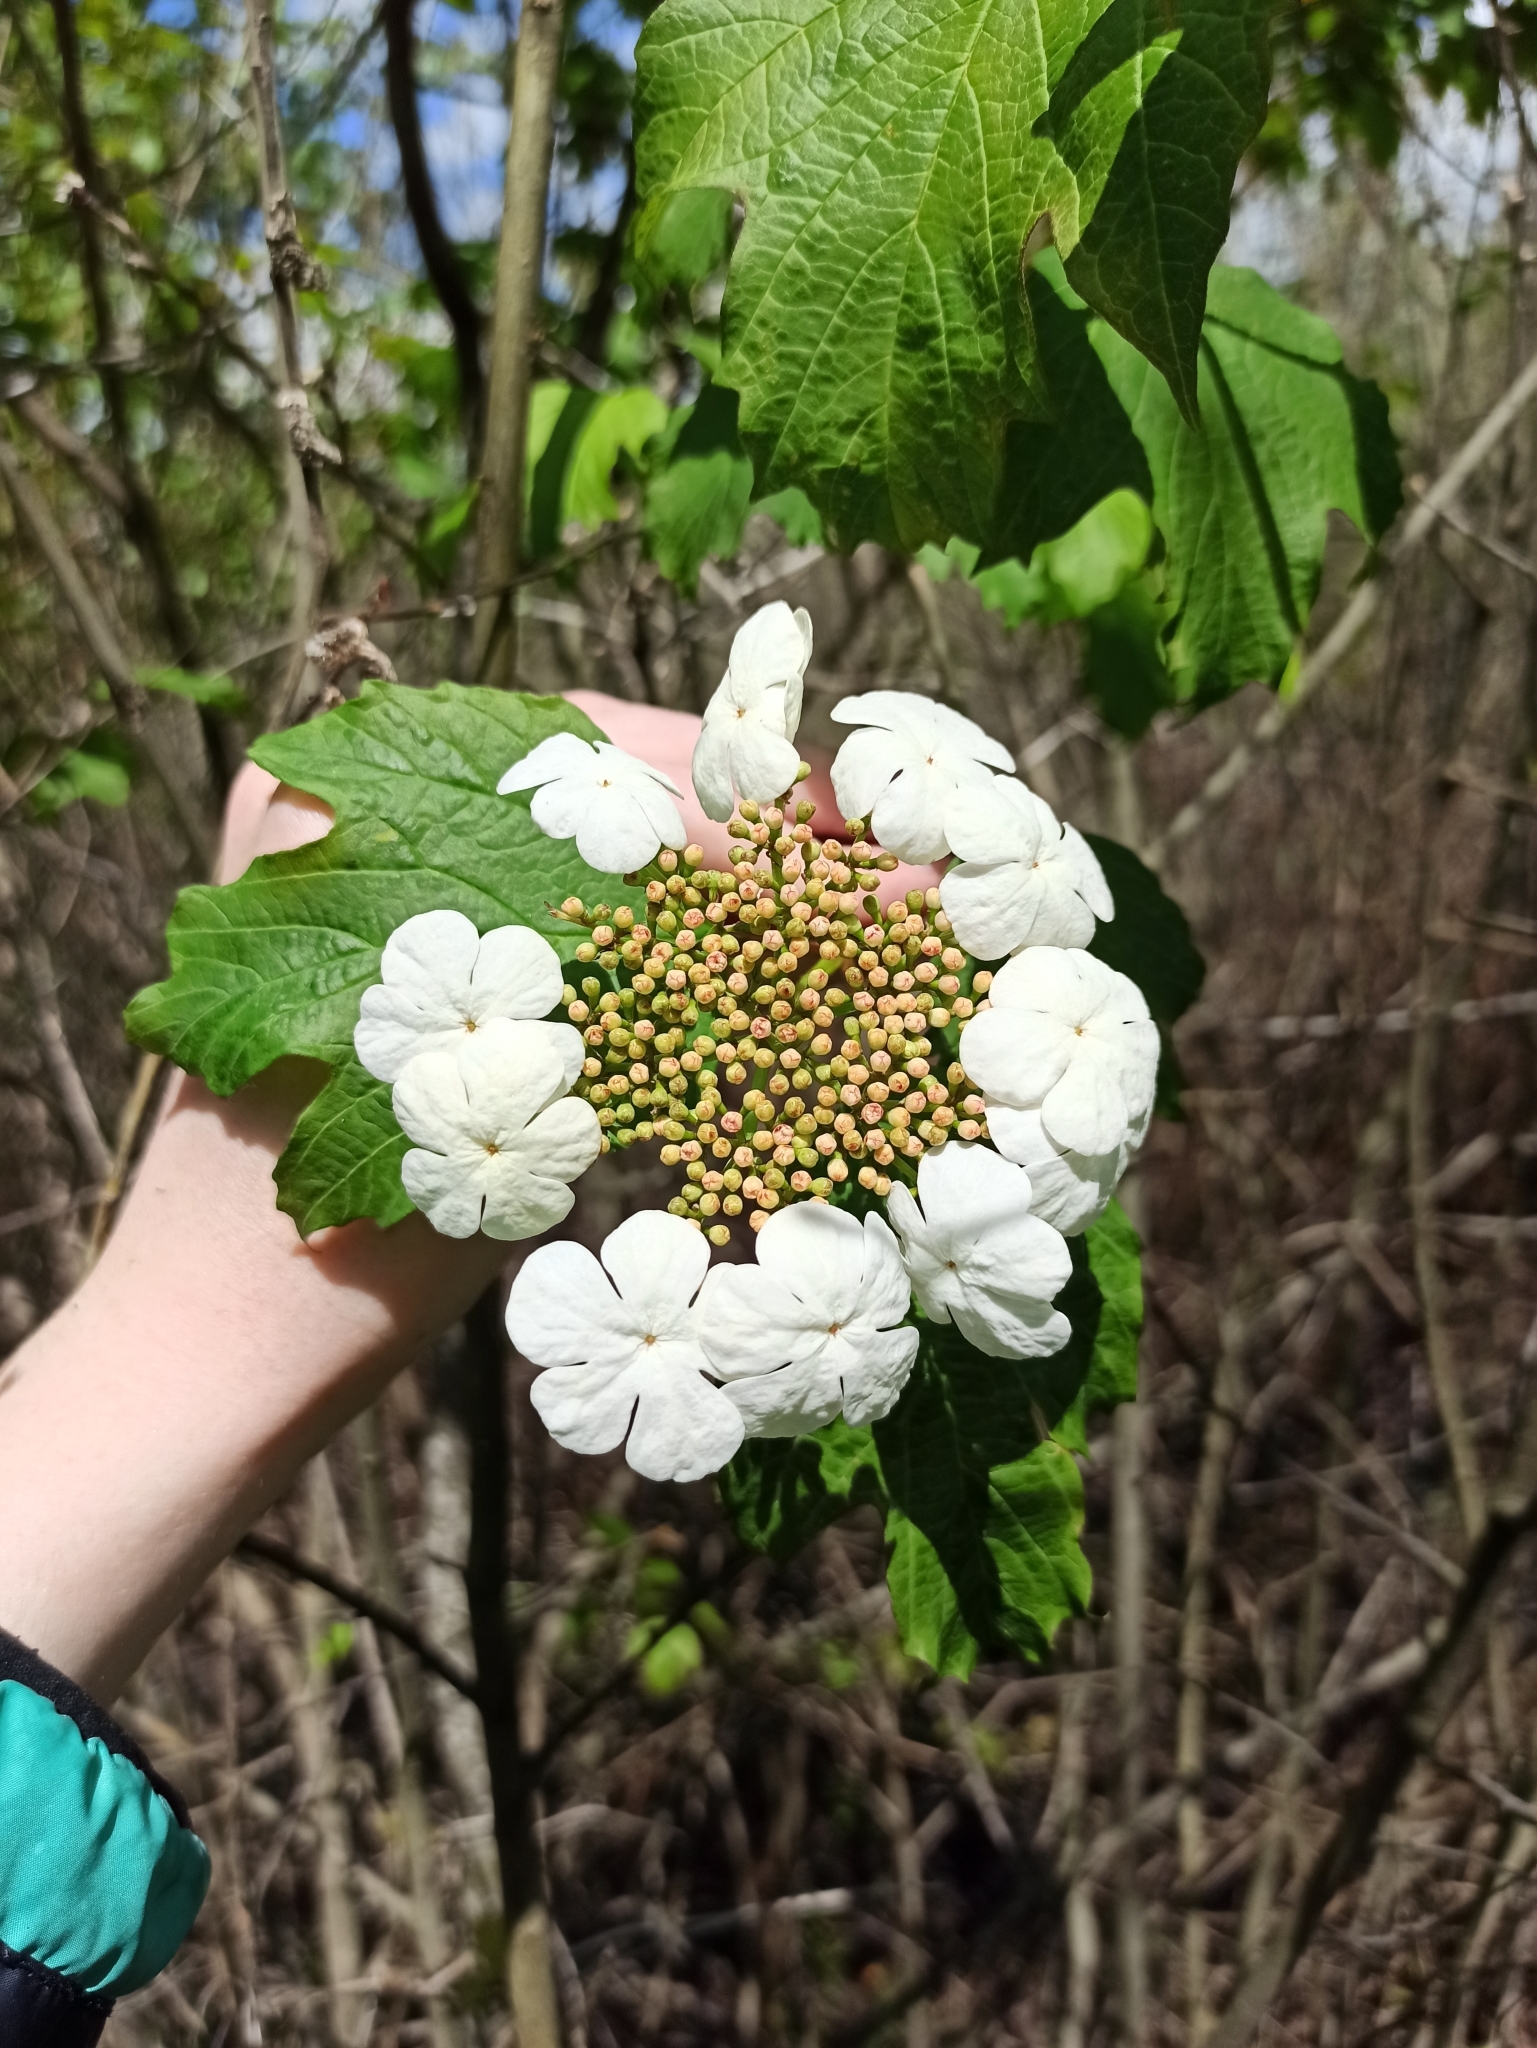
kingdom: Plantae
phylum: Tracheophyta
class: Magnoliopsida
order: Dipsacales
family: Viburnaceae
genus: Viburnum
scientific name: Viburnum opulus
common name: Guelder-rose
